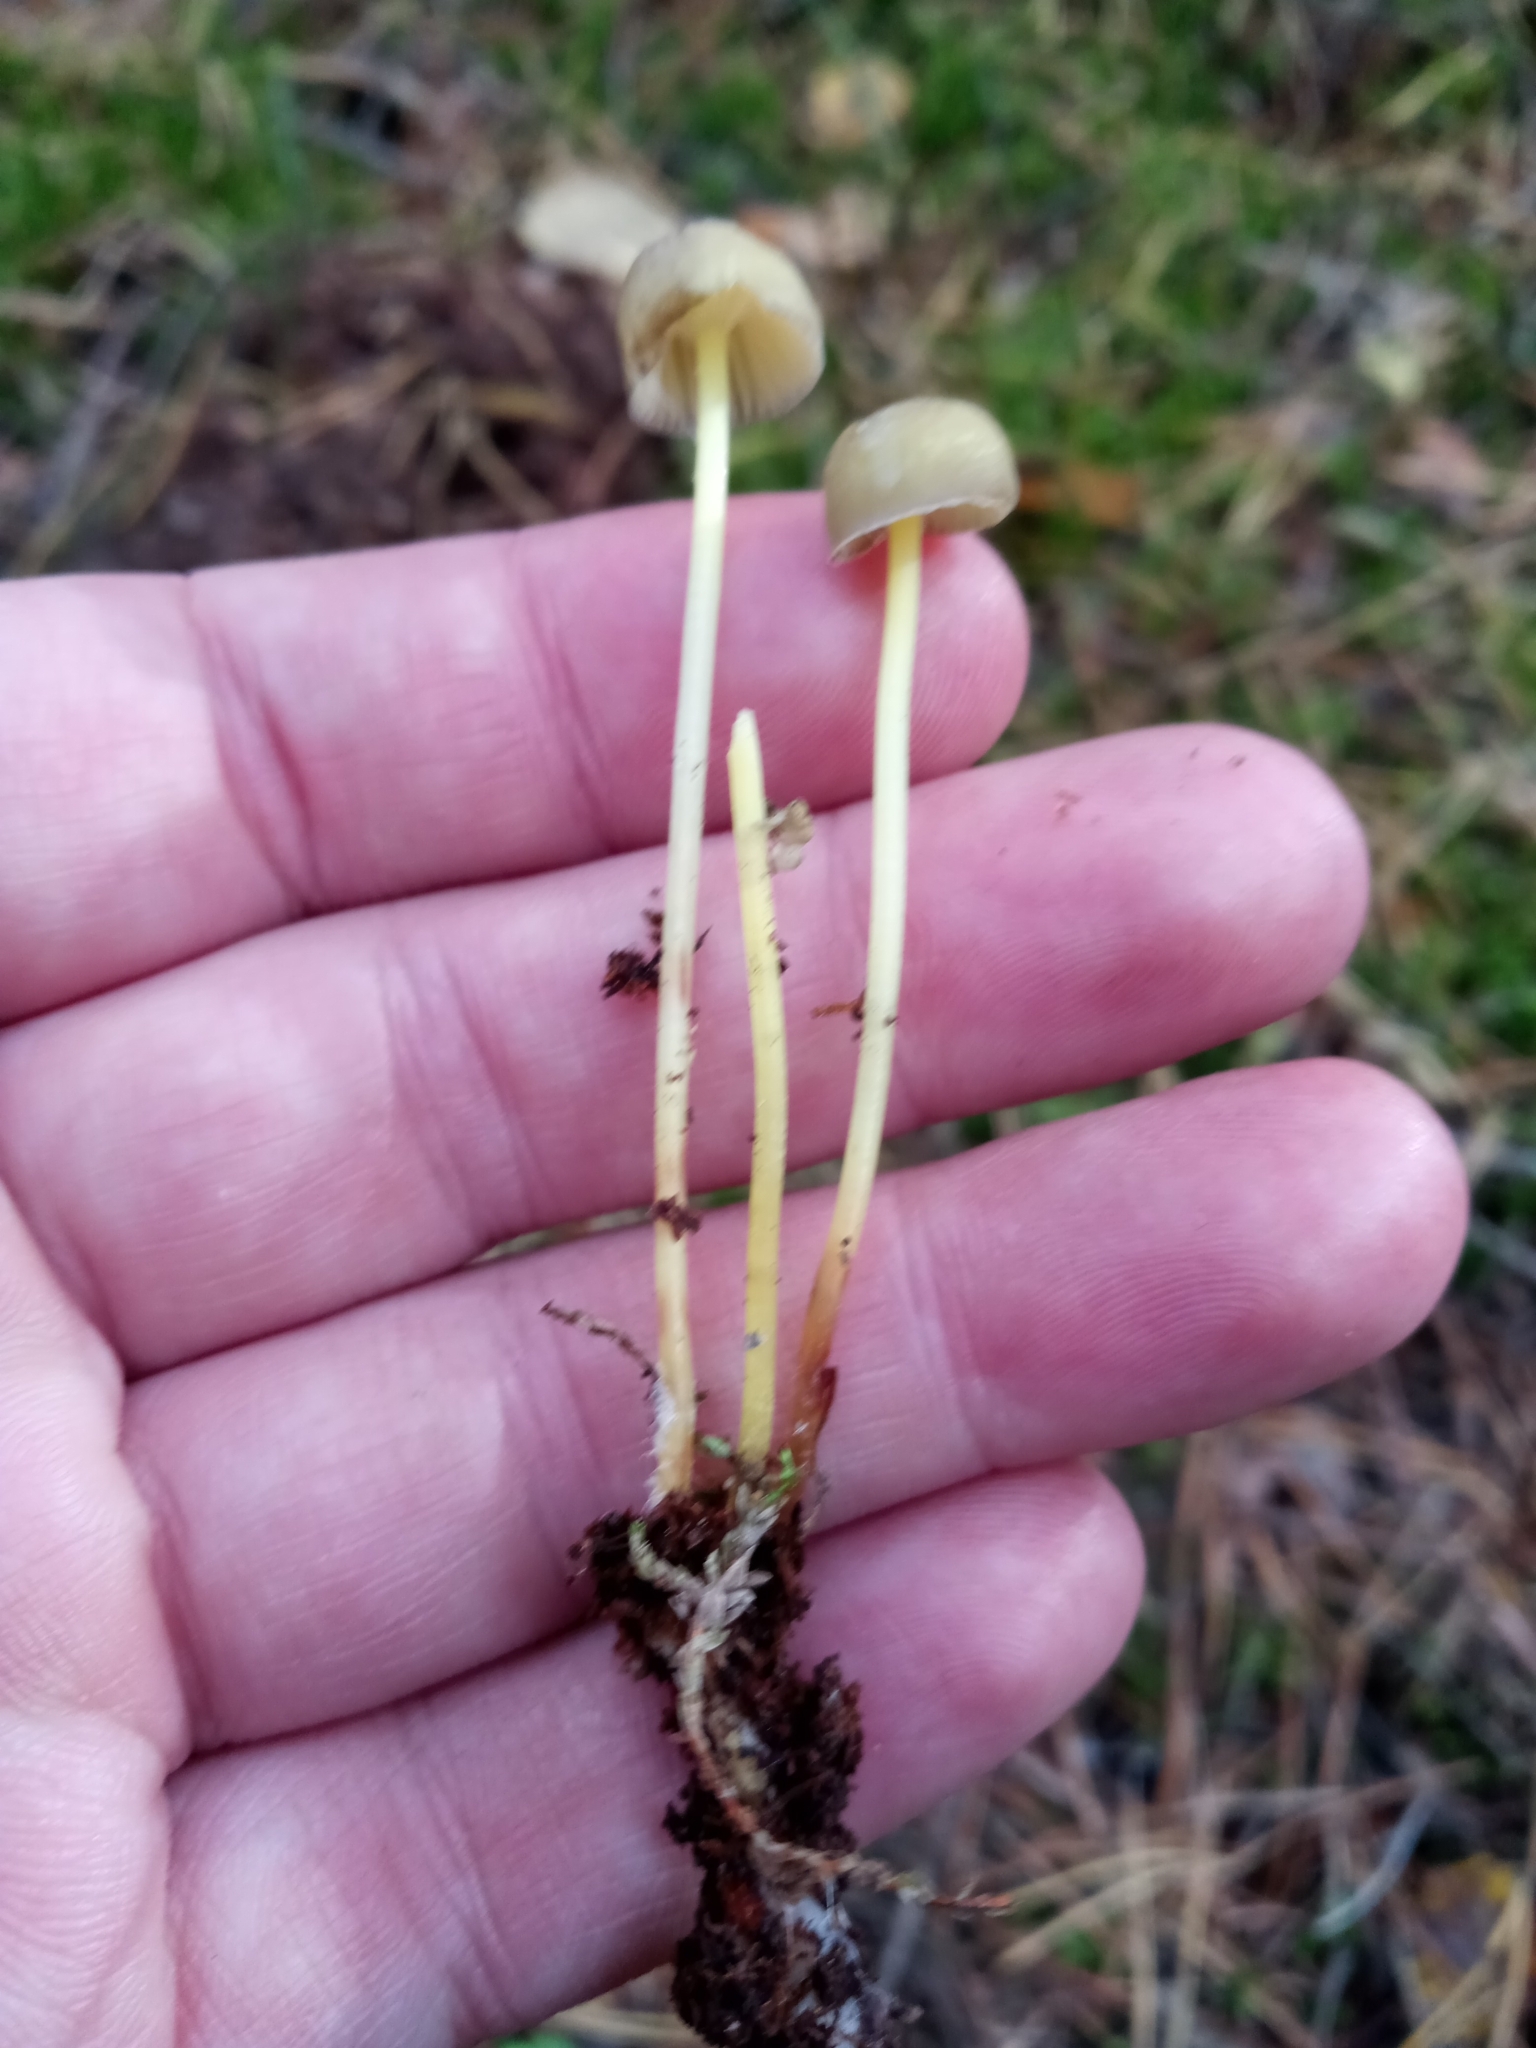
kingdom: Fungi
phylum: Basidiomycota
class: Agaricomycetes
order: Agaricales
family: Mycenaceae
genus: Mycena
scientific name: Mycena epipterygia
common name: Yellowleg bonnet
